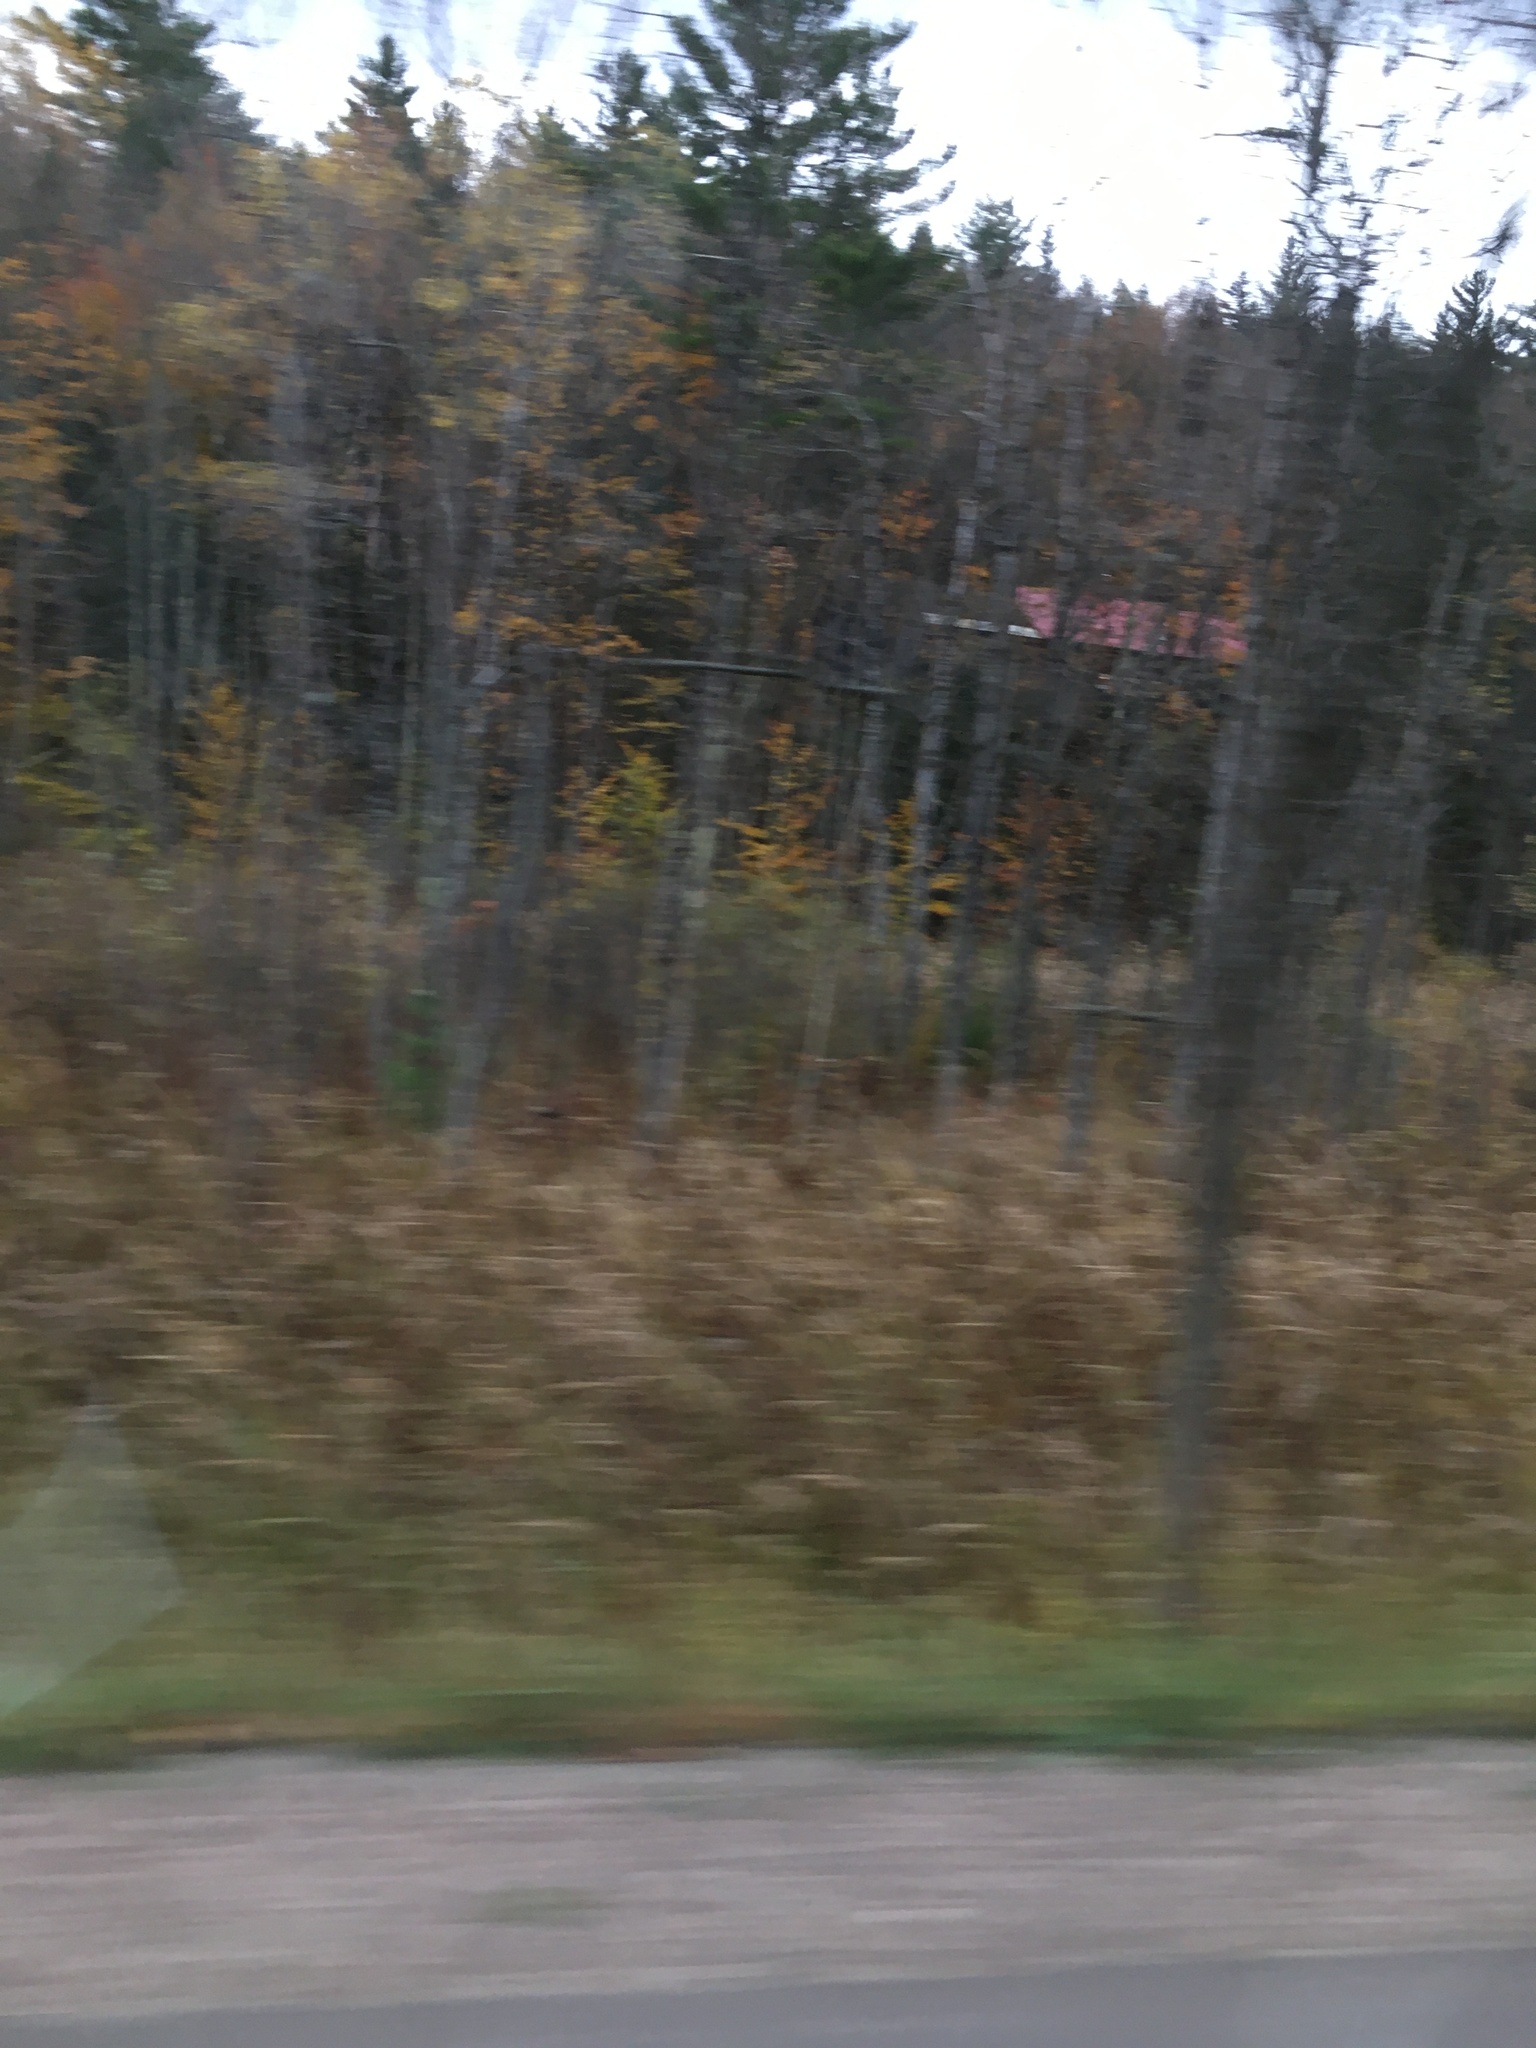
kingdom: Plantae
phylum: Tracheophyta
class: Pinopsida
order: Pinales
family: Pinaceae
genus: Pinus
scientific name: Pinus strobus
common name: Weymouth pine
